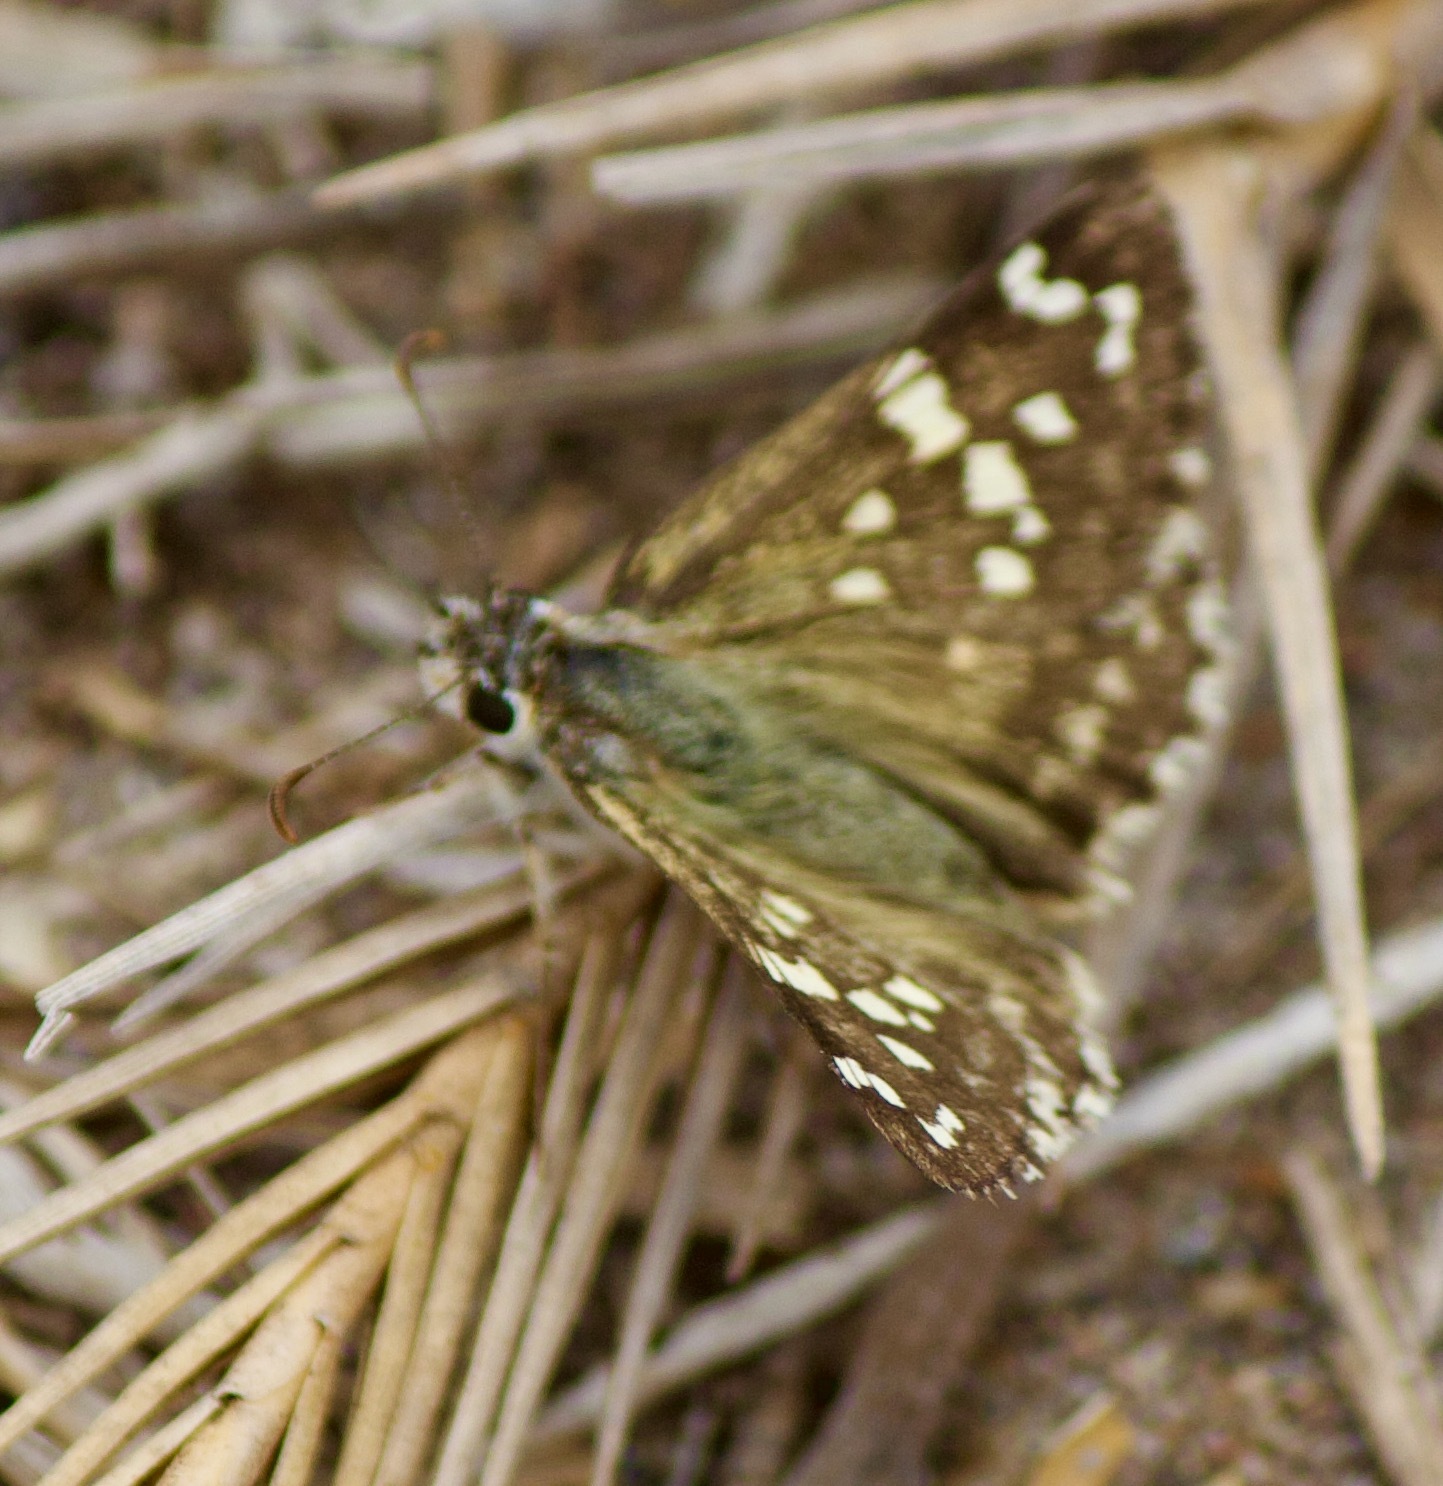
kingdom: Animalia
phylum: Arthropoda
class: Insecta
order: Lepidoptera
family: Hesperiidae
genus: Chirgus
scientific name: Chirgus fides
